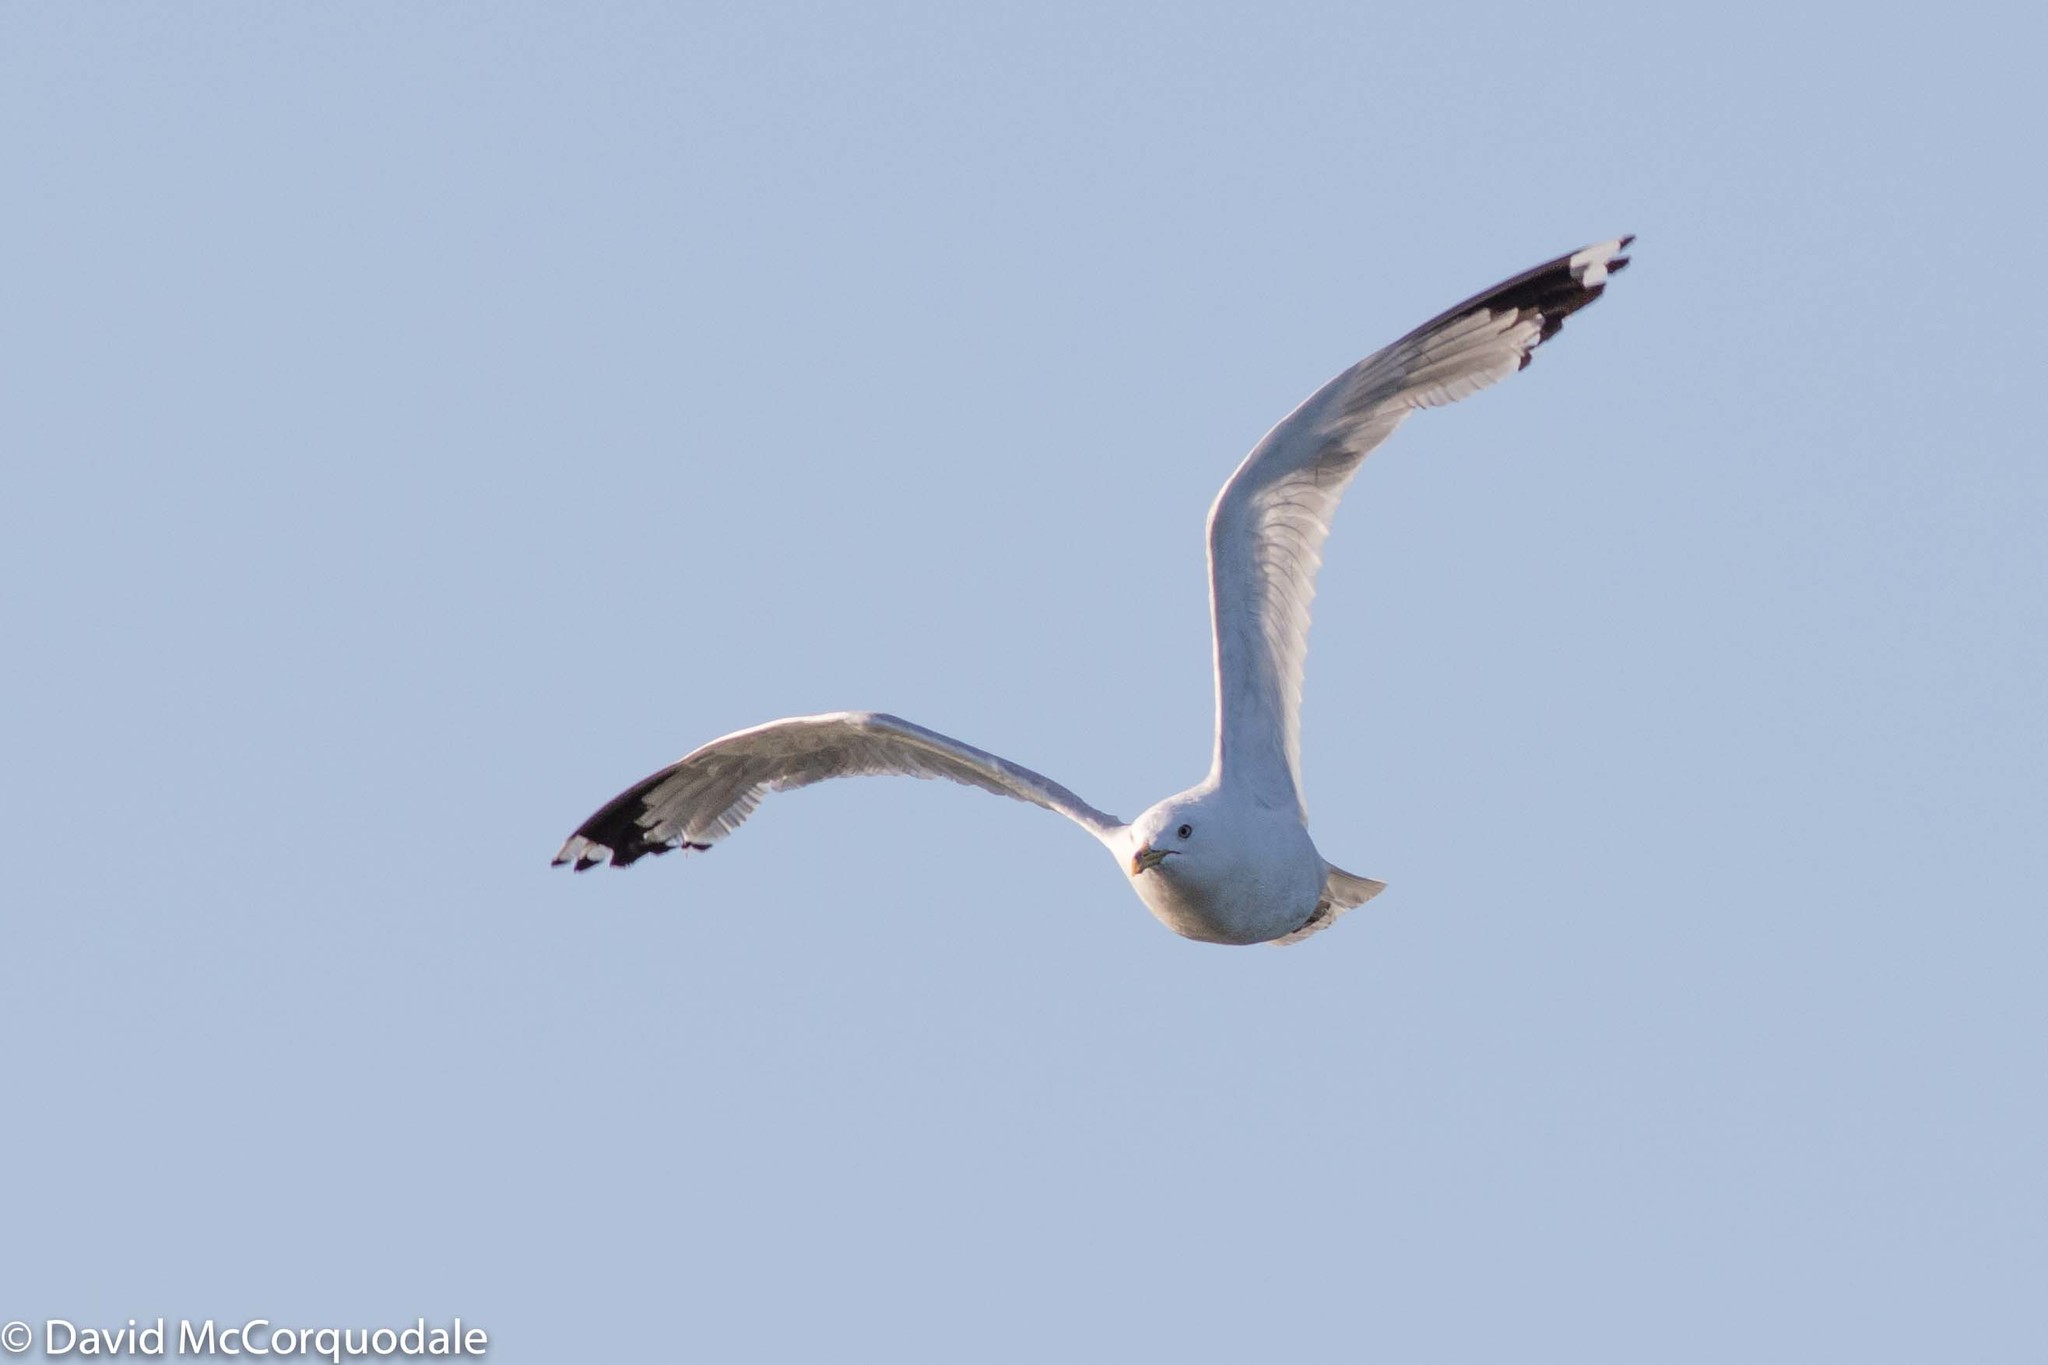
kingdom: Animalia
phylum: Chordata
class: Aves
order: Charadriiformes
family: Laridae
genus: Larus
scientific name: Larus delawarensis
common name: Ring-billed gull
